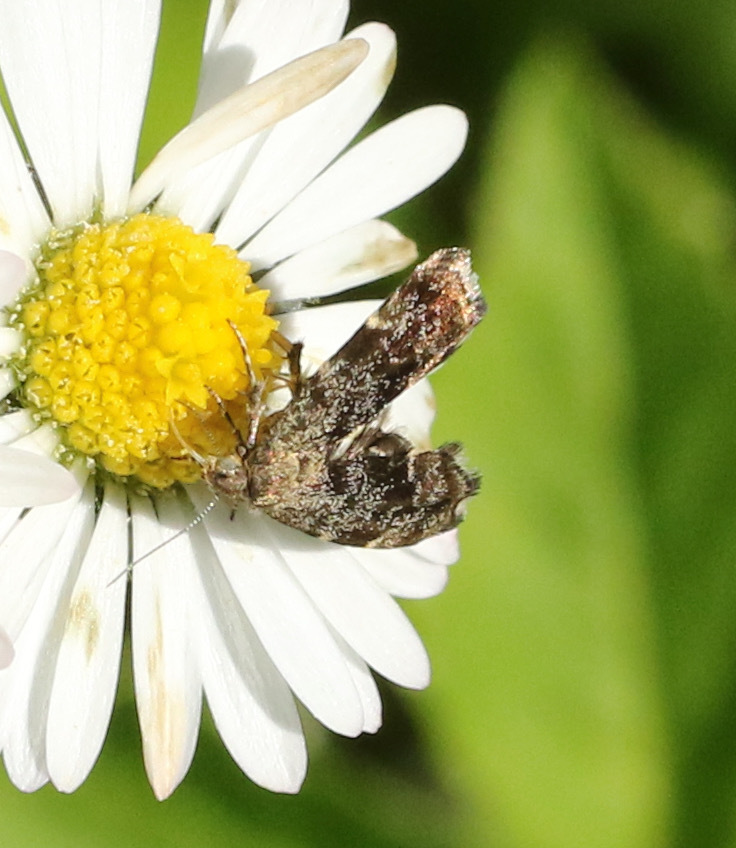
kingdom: Animalia
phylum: Arthropoda
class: Insecta
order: Lepidoptera
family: Choreutidae
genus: Anthophila
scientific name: Anthophila fabriciana
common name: Nettle-tap
